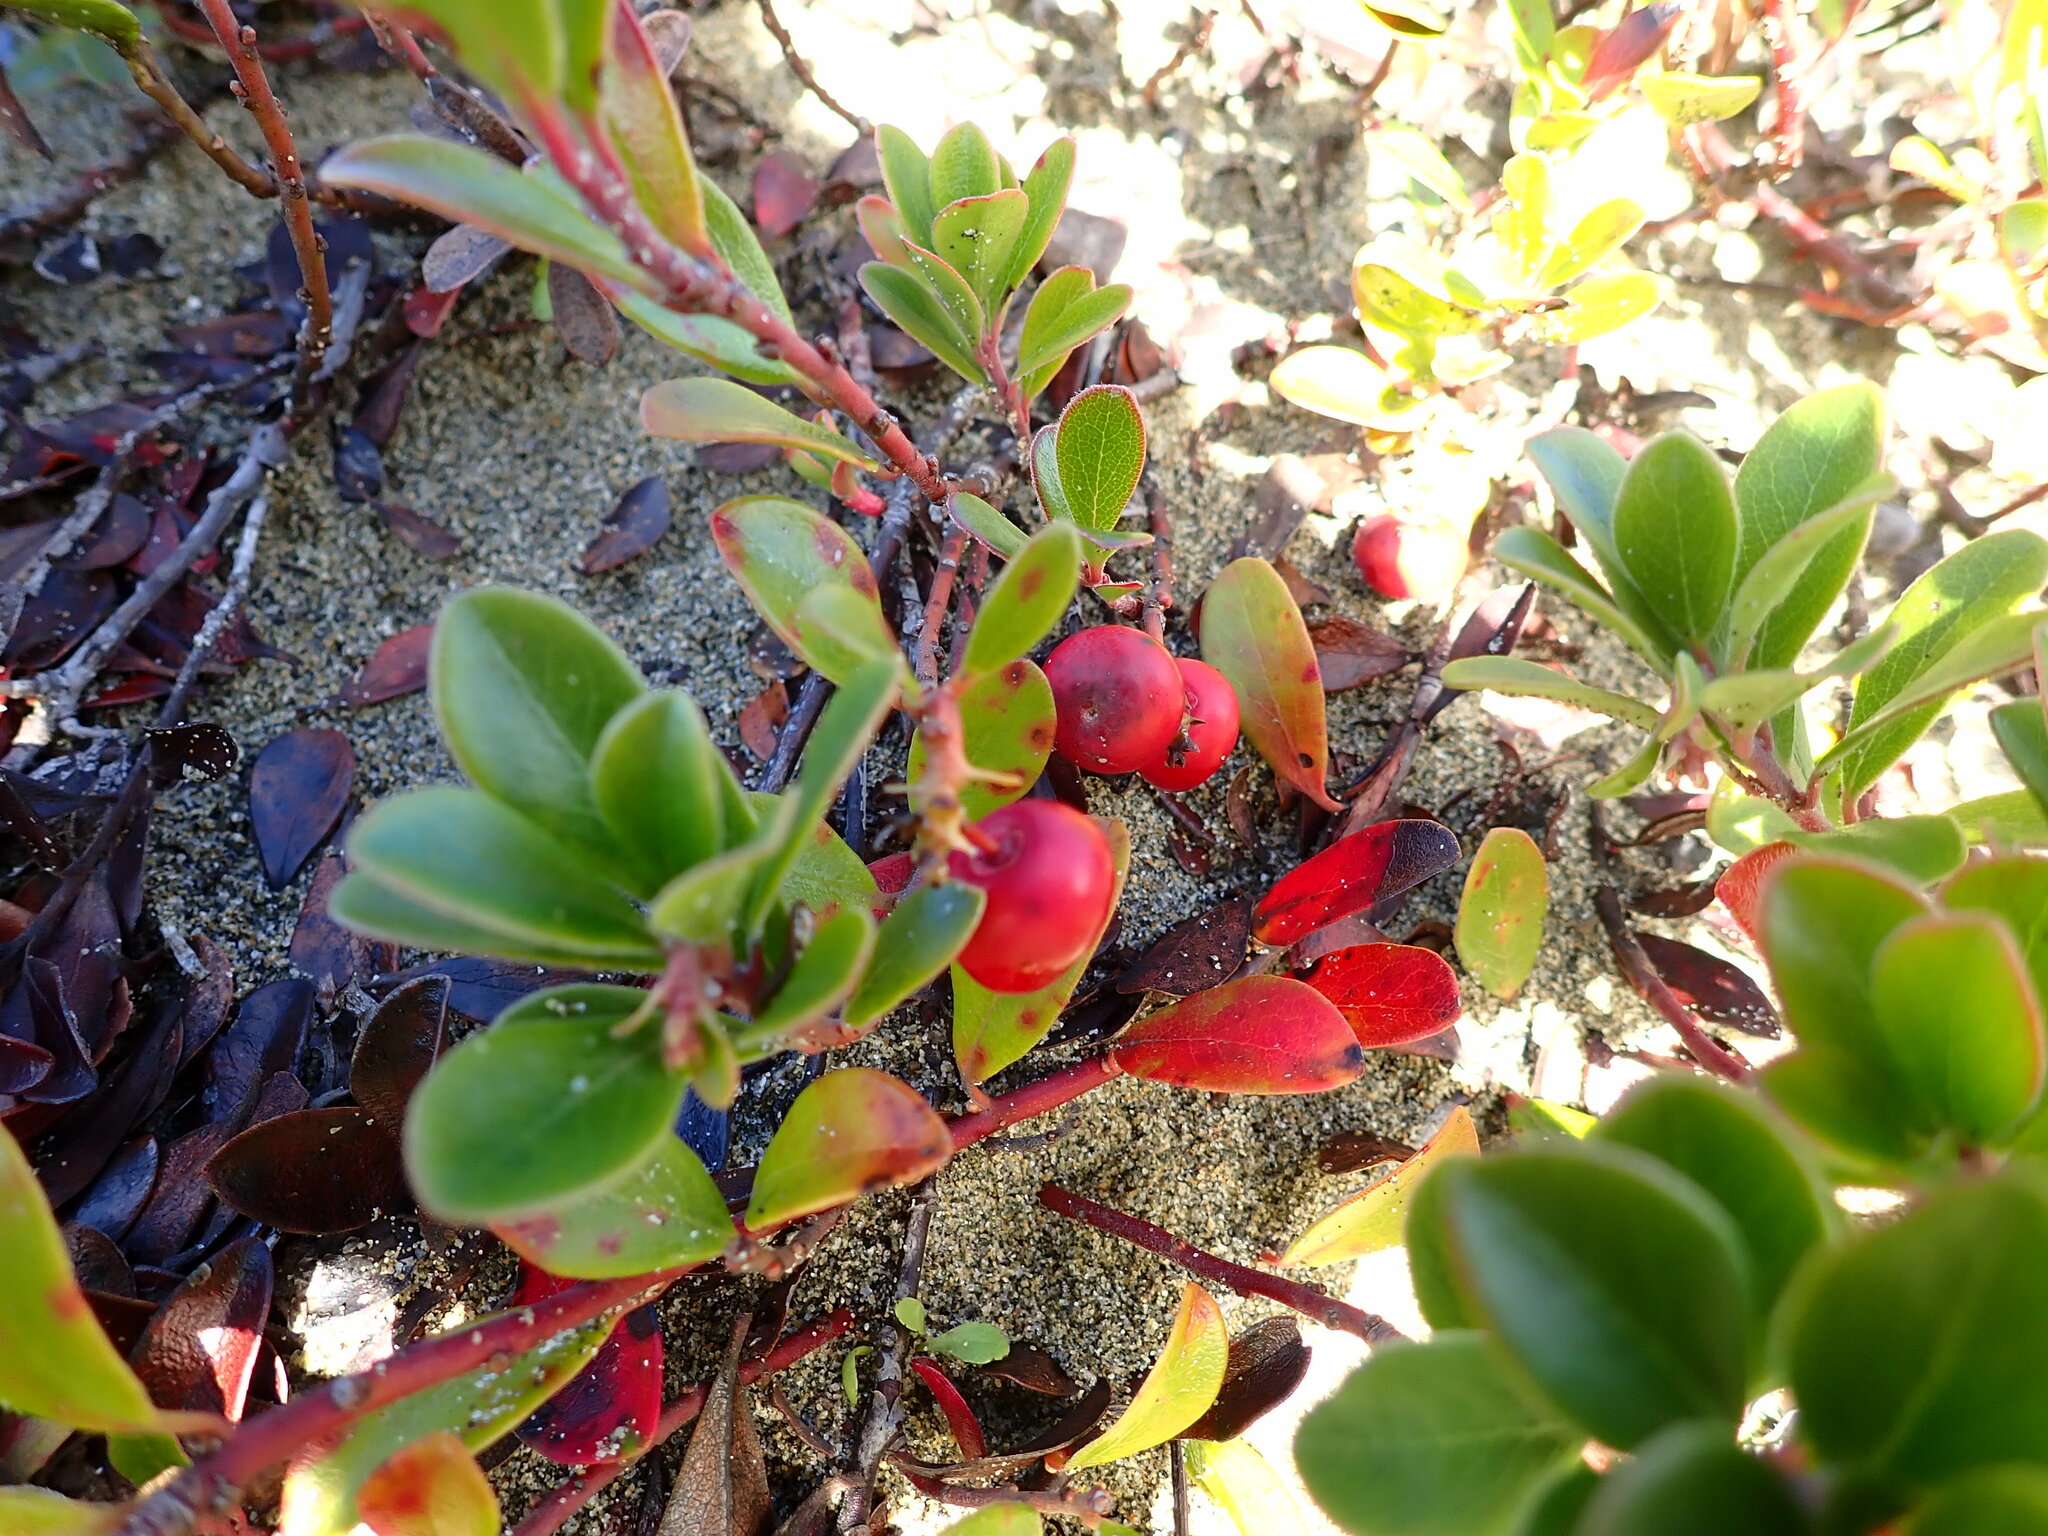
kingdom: Plantae
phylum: Tracheophyta
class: Magnoliopsida
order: Ericales
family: Ericaceae
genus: Arctostaphylos
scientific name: Arctostaphylos uva-ursi
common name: Bearberry
